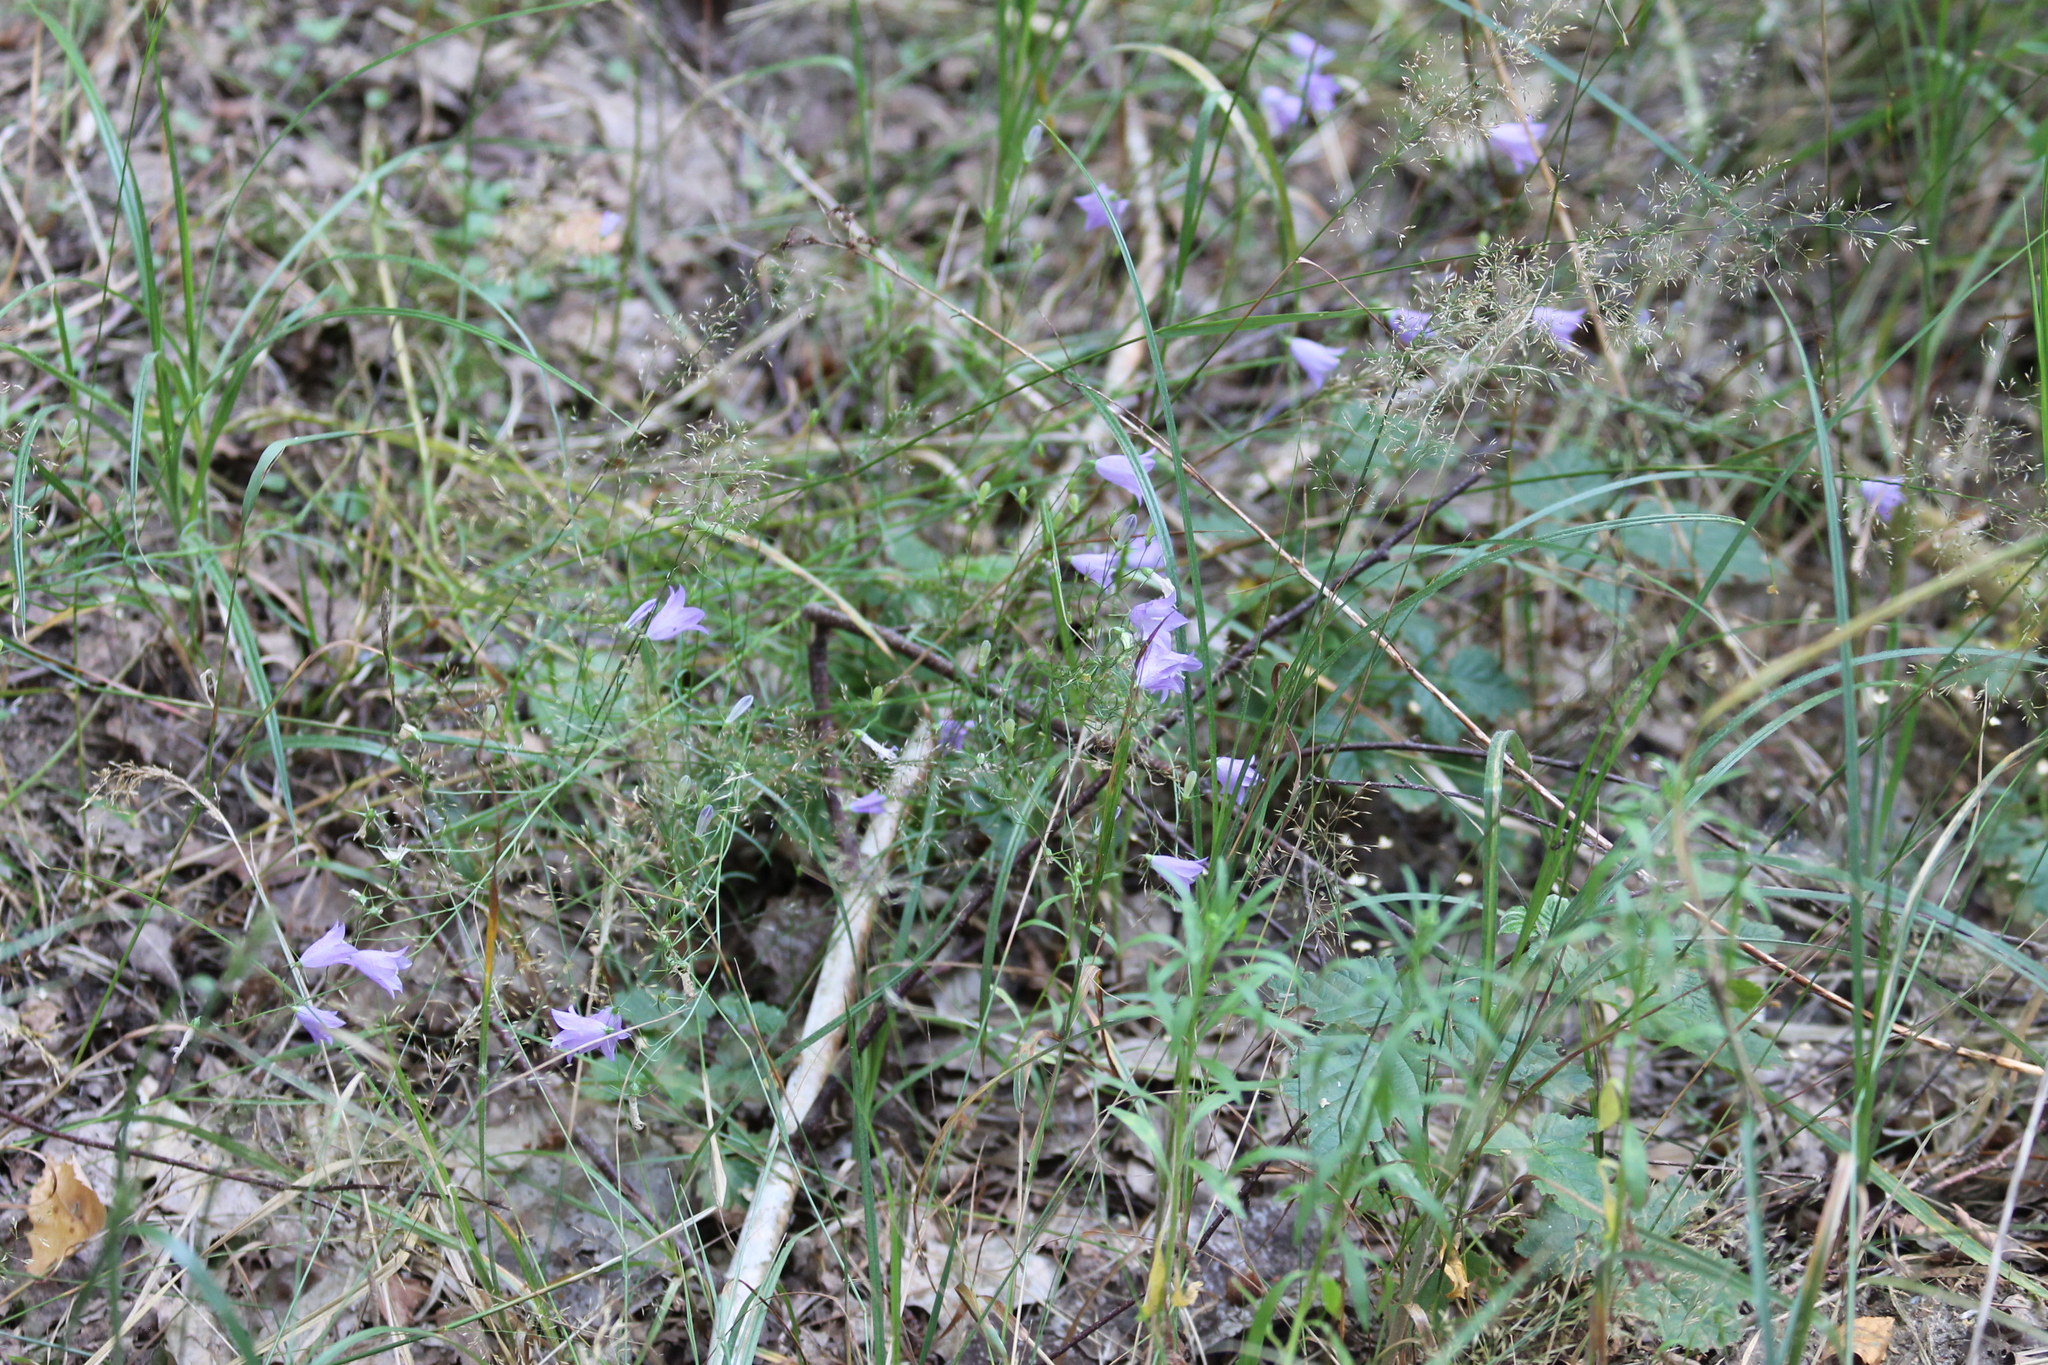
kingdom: Plantae
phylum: Tracheophyta
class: Magnoliopsida
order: Asterales
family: Campanulaceae
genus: Campanula
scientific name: Campanula rotundifolia
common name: Harebell
